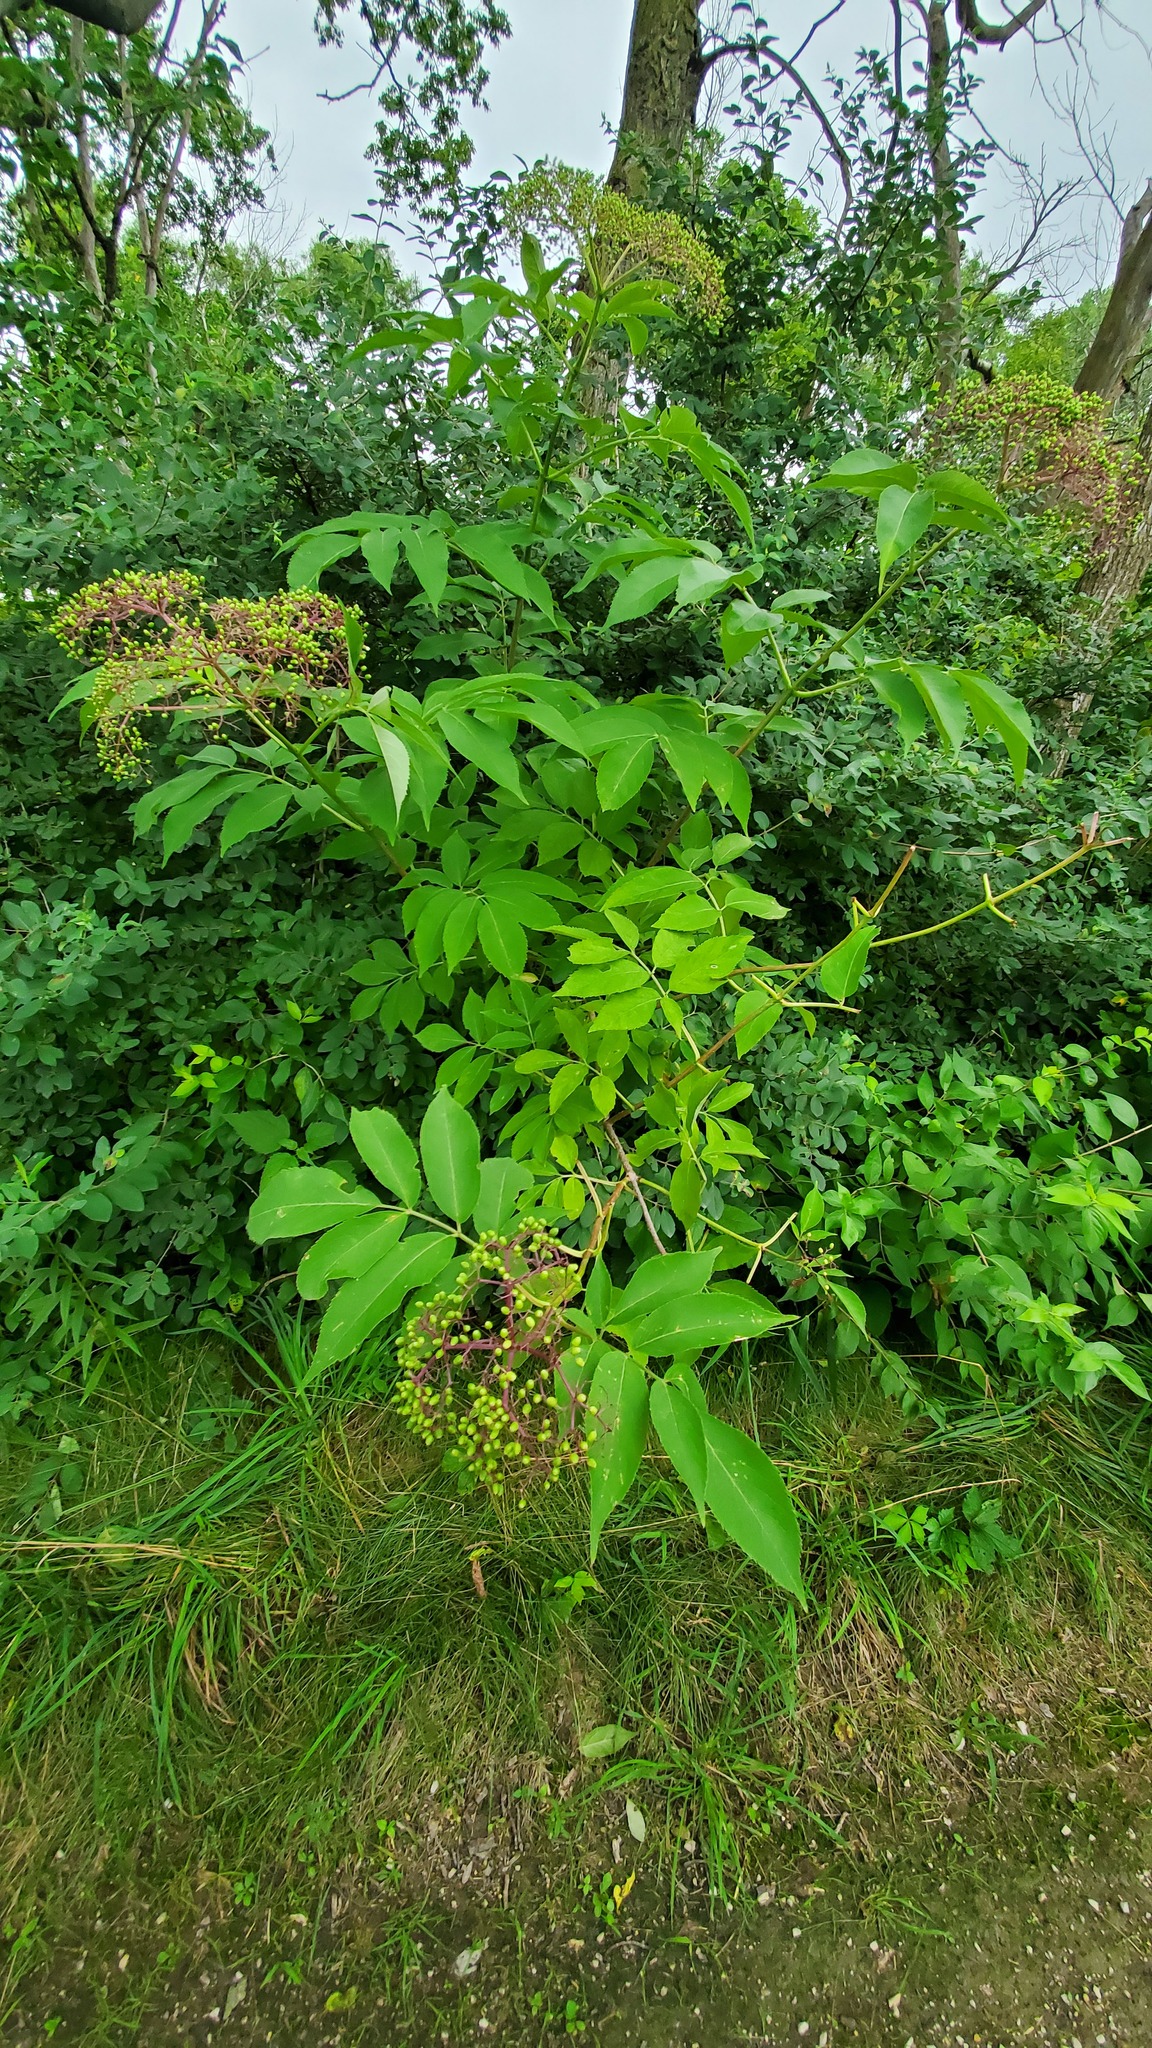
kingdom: Plantae
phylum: Tracheophyta
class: Magnoliopsida
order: Dipsacales
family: Viburnaceae
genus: Sambucus
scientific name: Sambucus canadensis
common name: American elder
